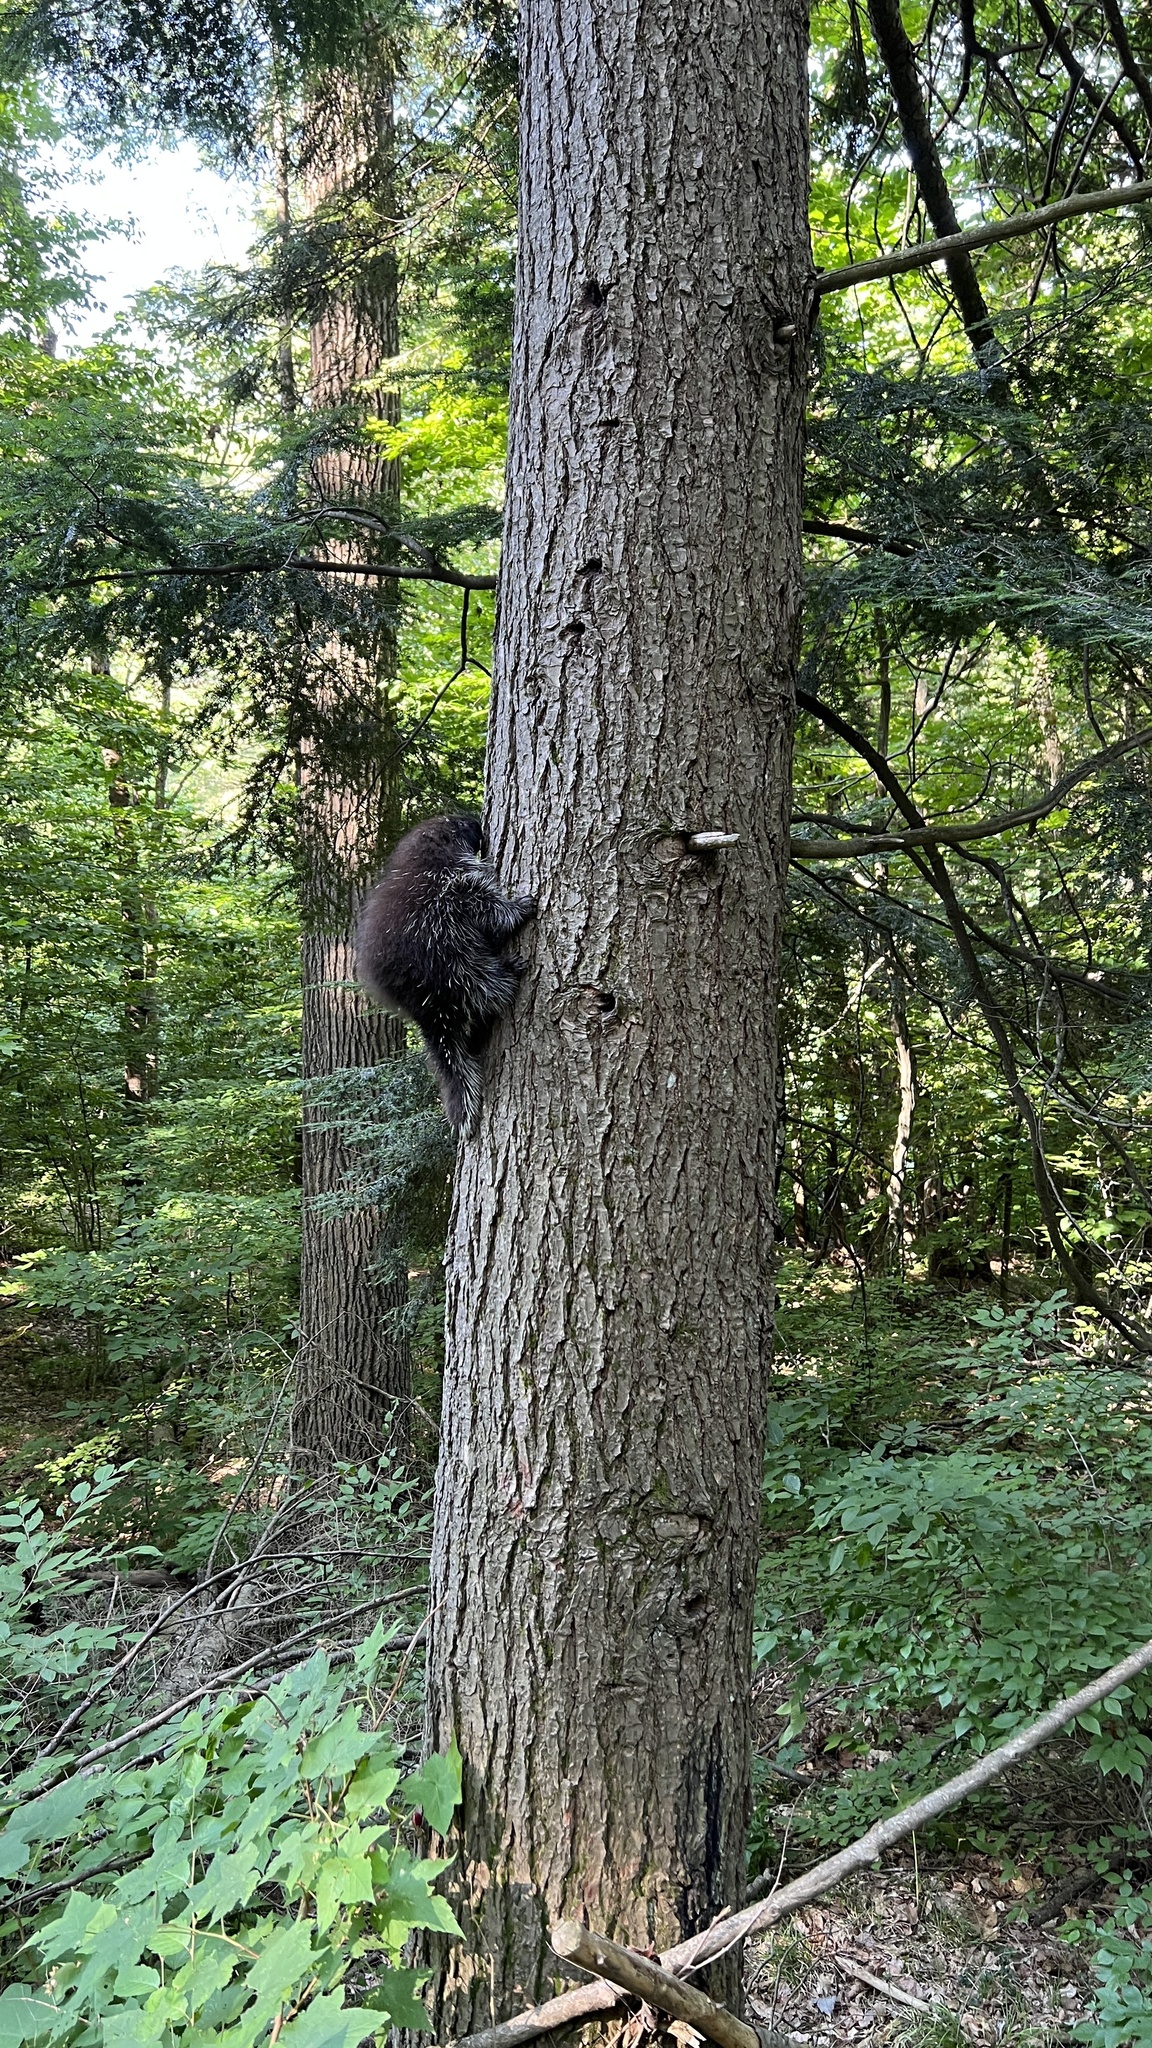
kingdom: Animalia
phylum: Chordata
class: Mammalia
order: Rodentia
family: Erethizontidae
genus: Erethizon
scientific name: Erethizon dorsatus
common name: North american porcupine
